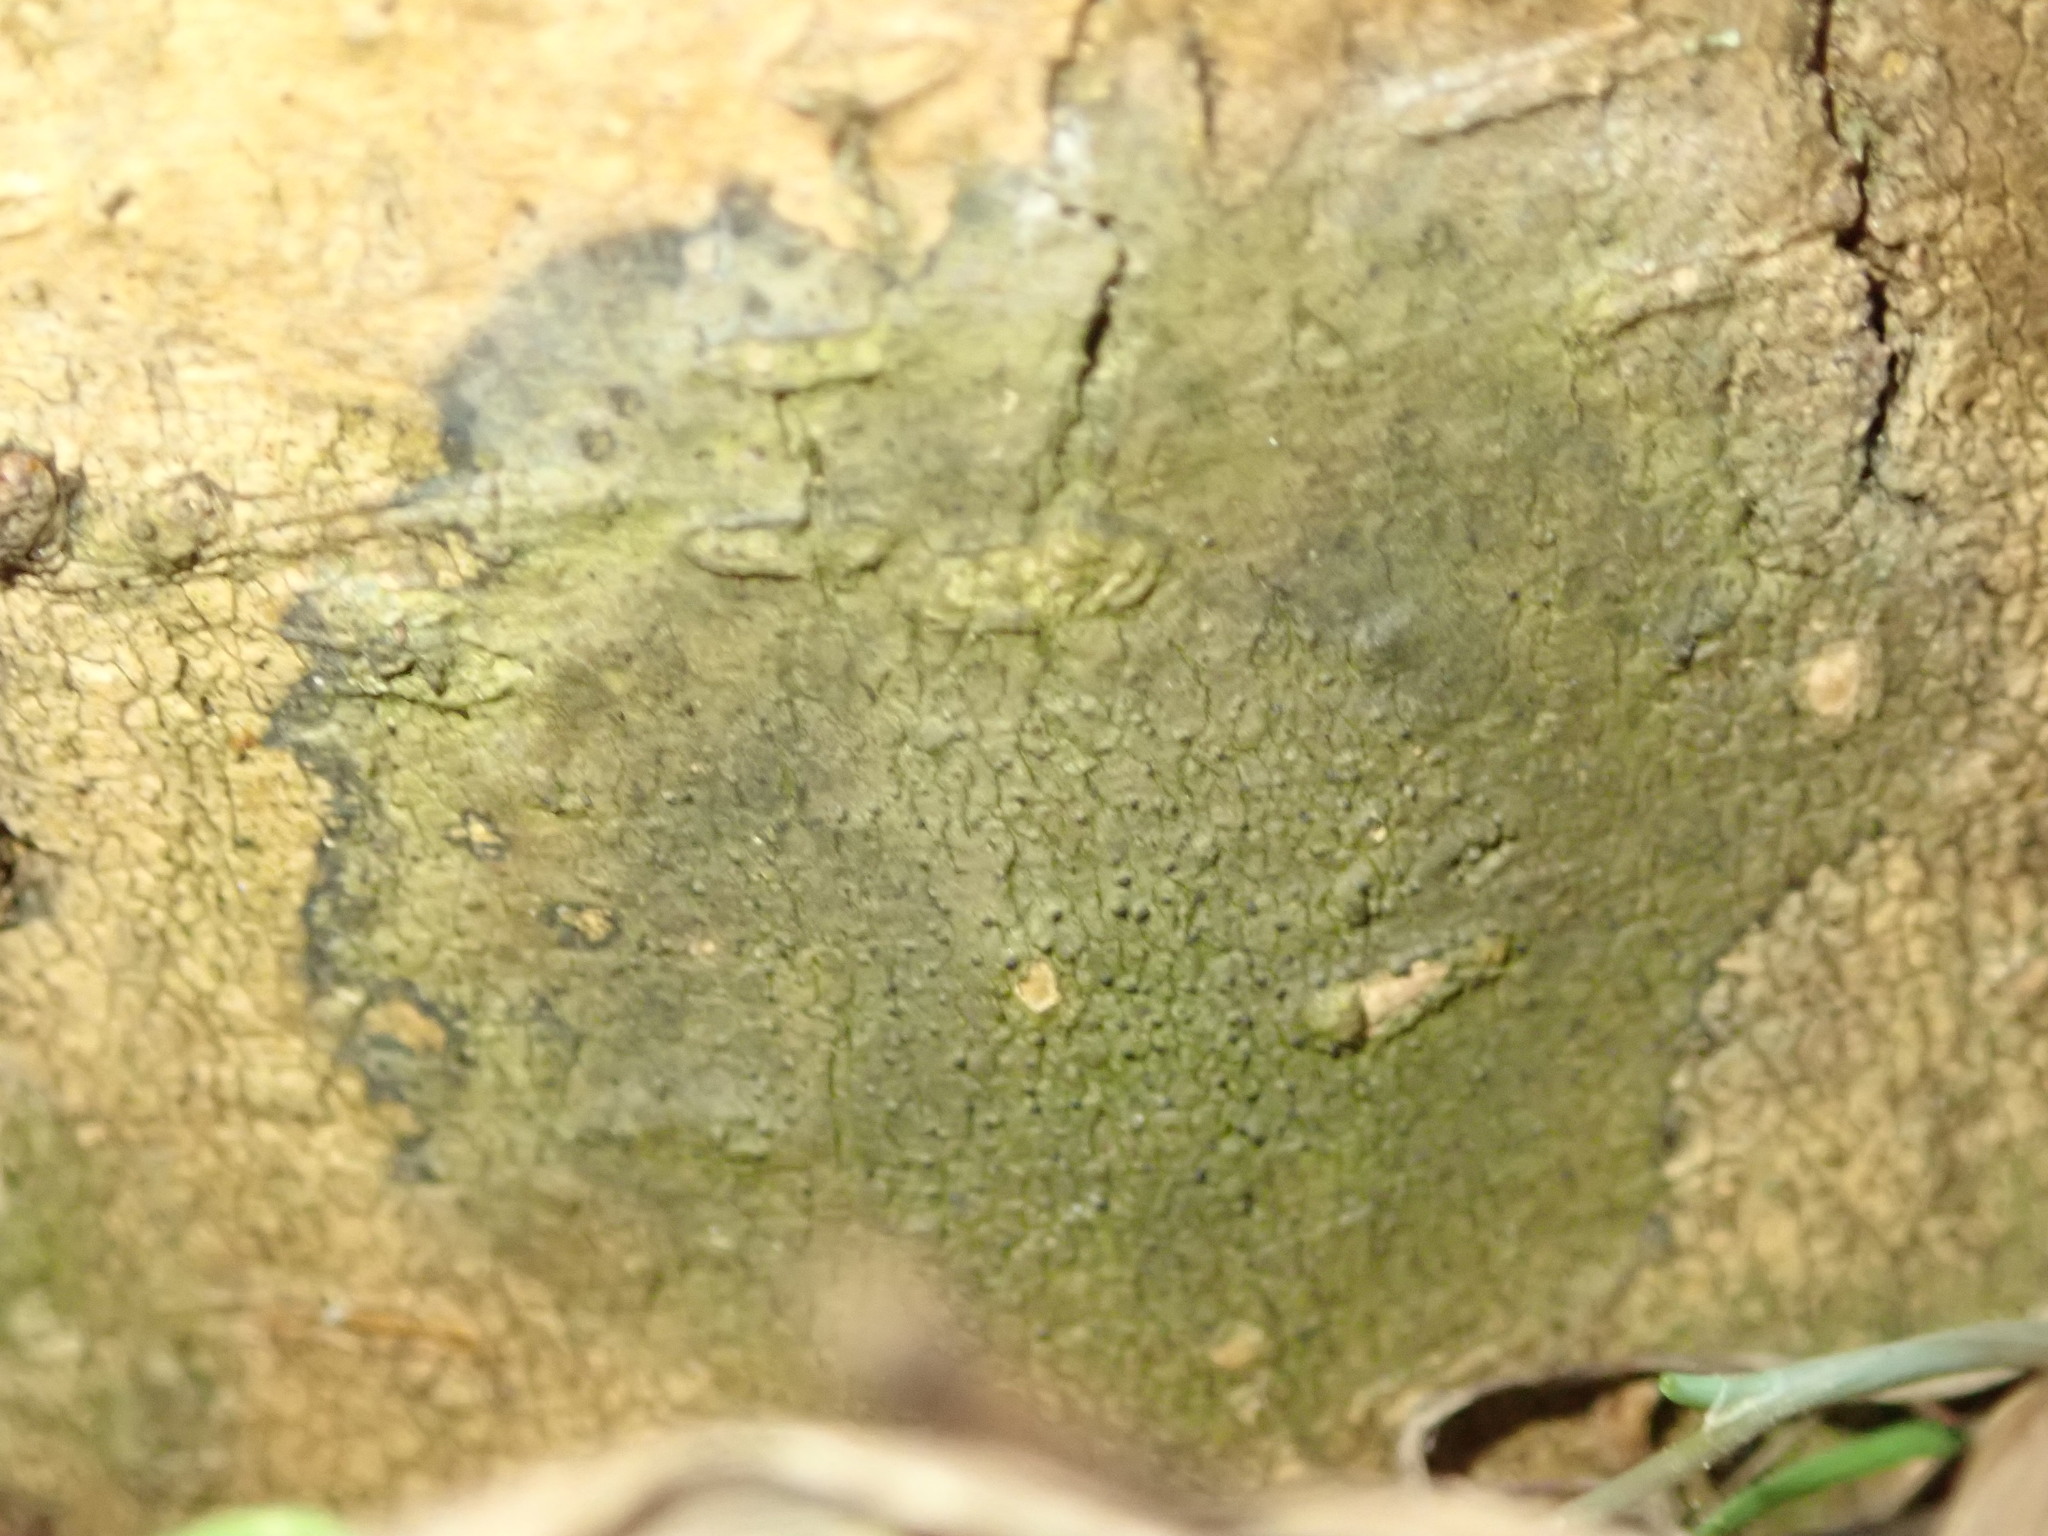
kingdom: Fungi
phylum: Ascomycota
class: Lecanoromycetes
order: Ostropales
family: Porinaceae
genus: Pseudosagedia
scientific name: Pseudosagedia
